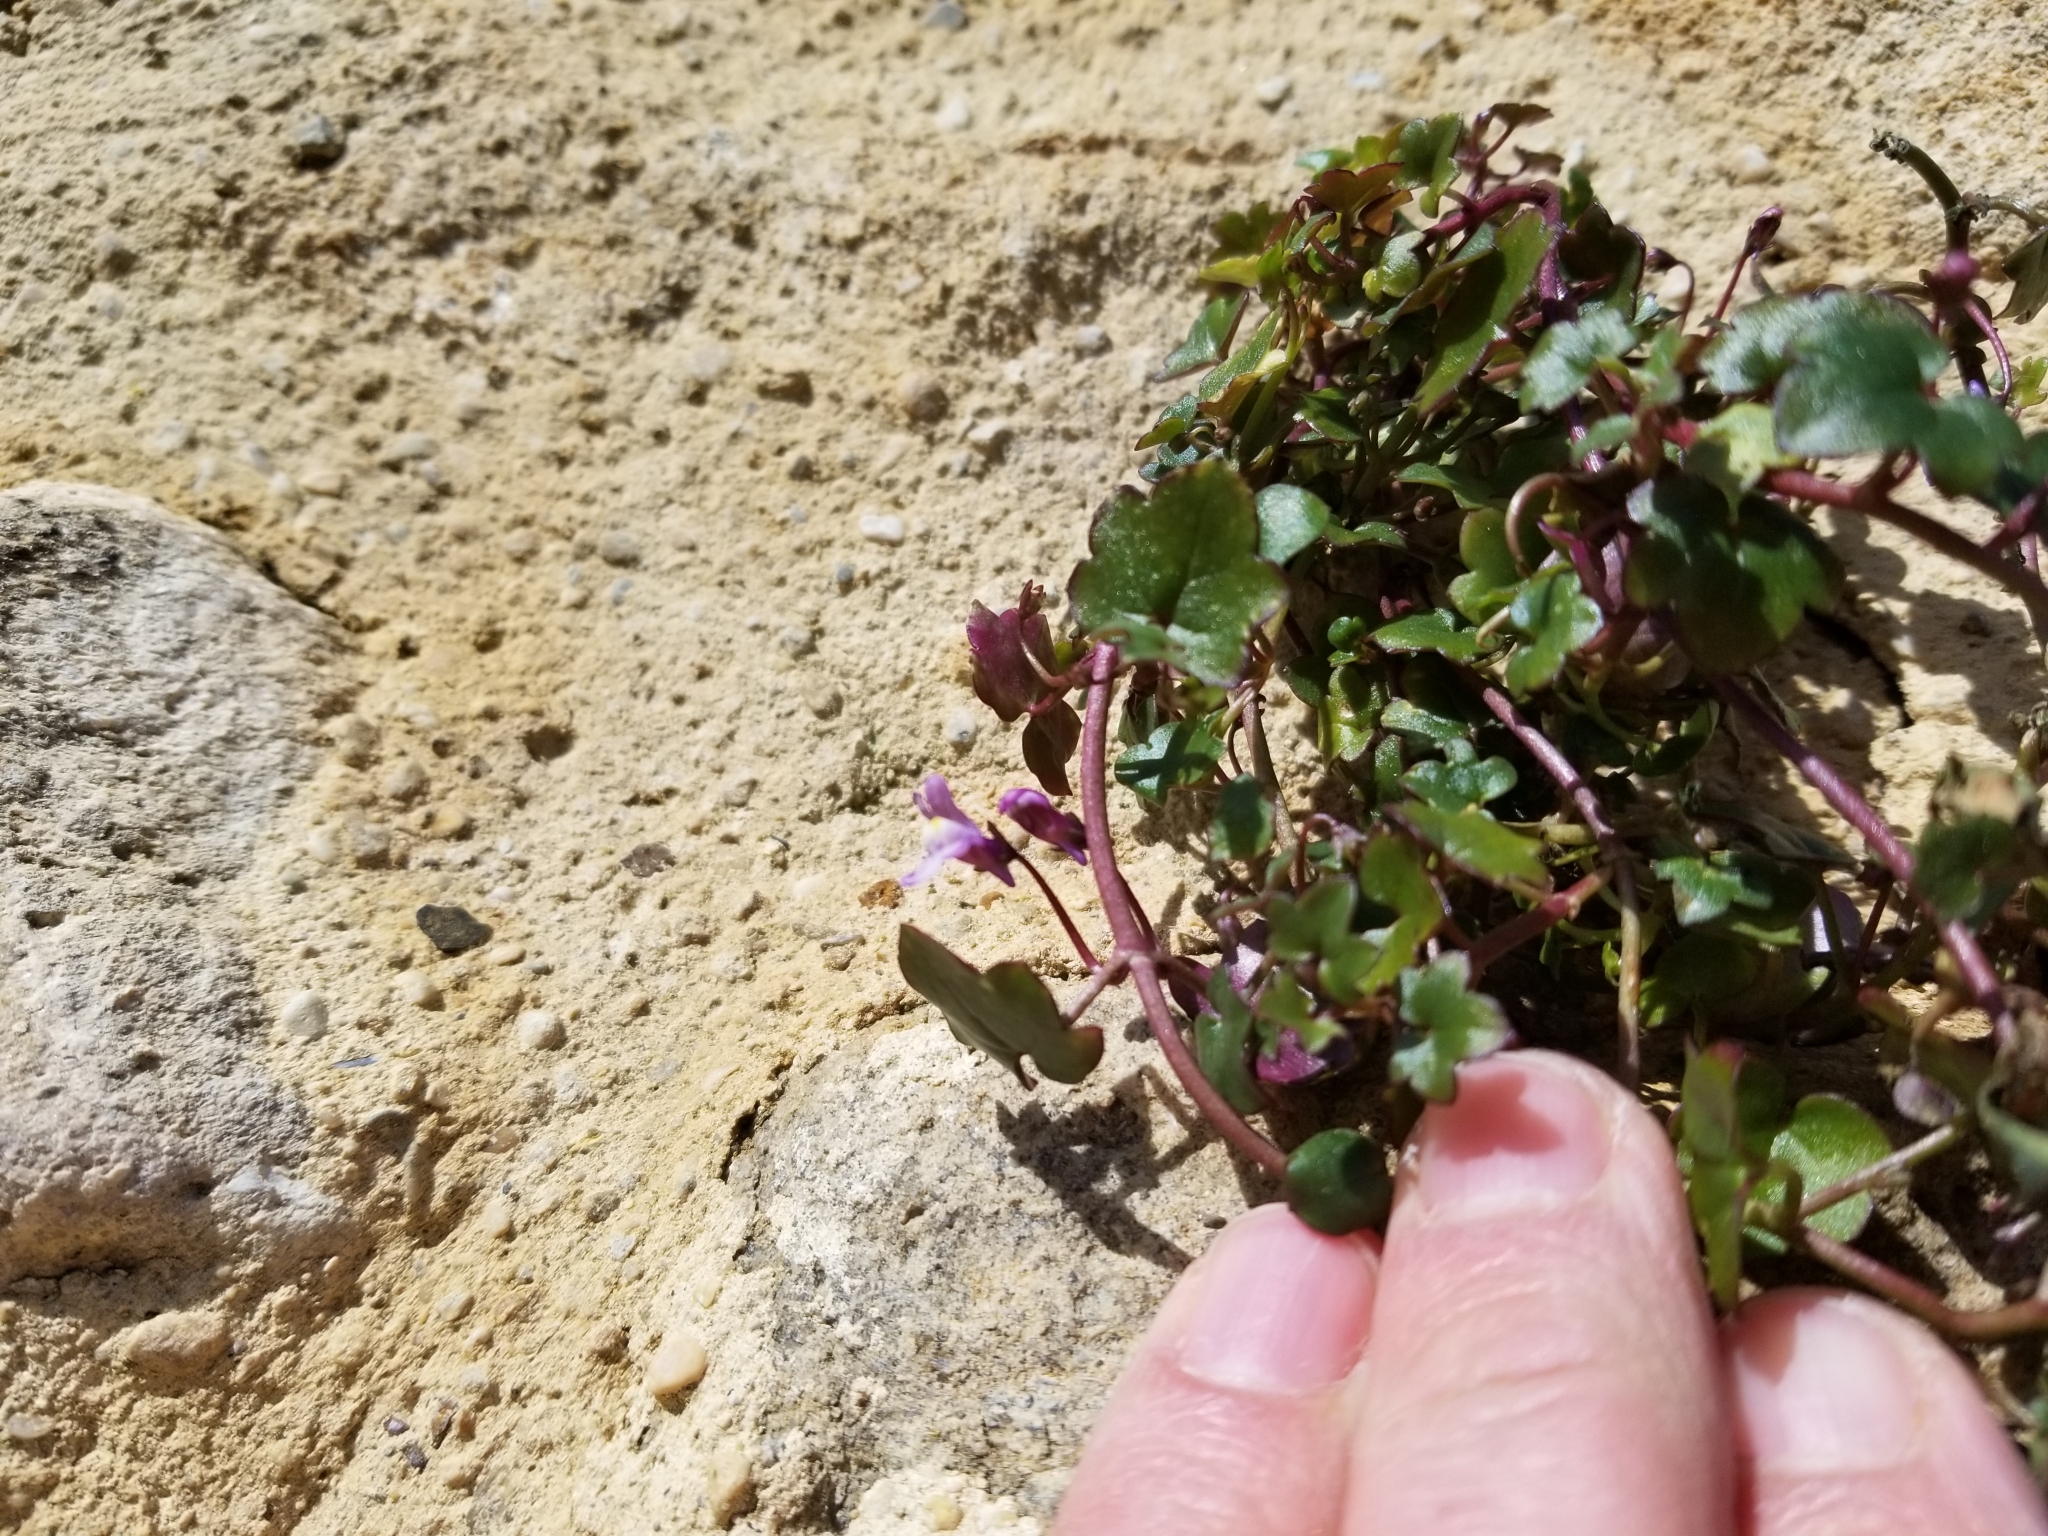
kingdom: Plantae
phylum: Tracheophyta
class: Magnoliopsida
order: Lamiales
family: Plantaginaceae
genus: Cymbalaria
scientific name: Cymbalaria muralis
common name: Ivy-leaved toadflax
